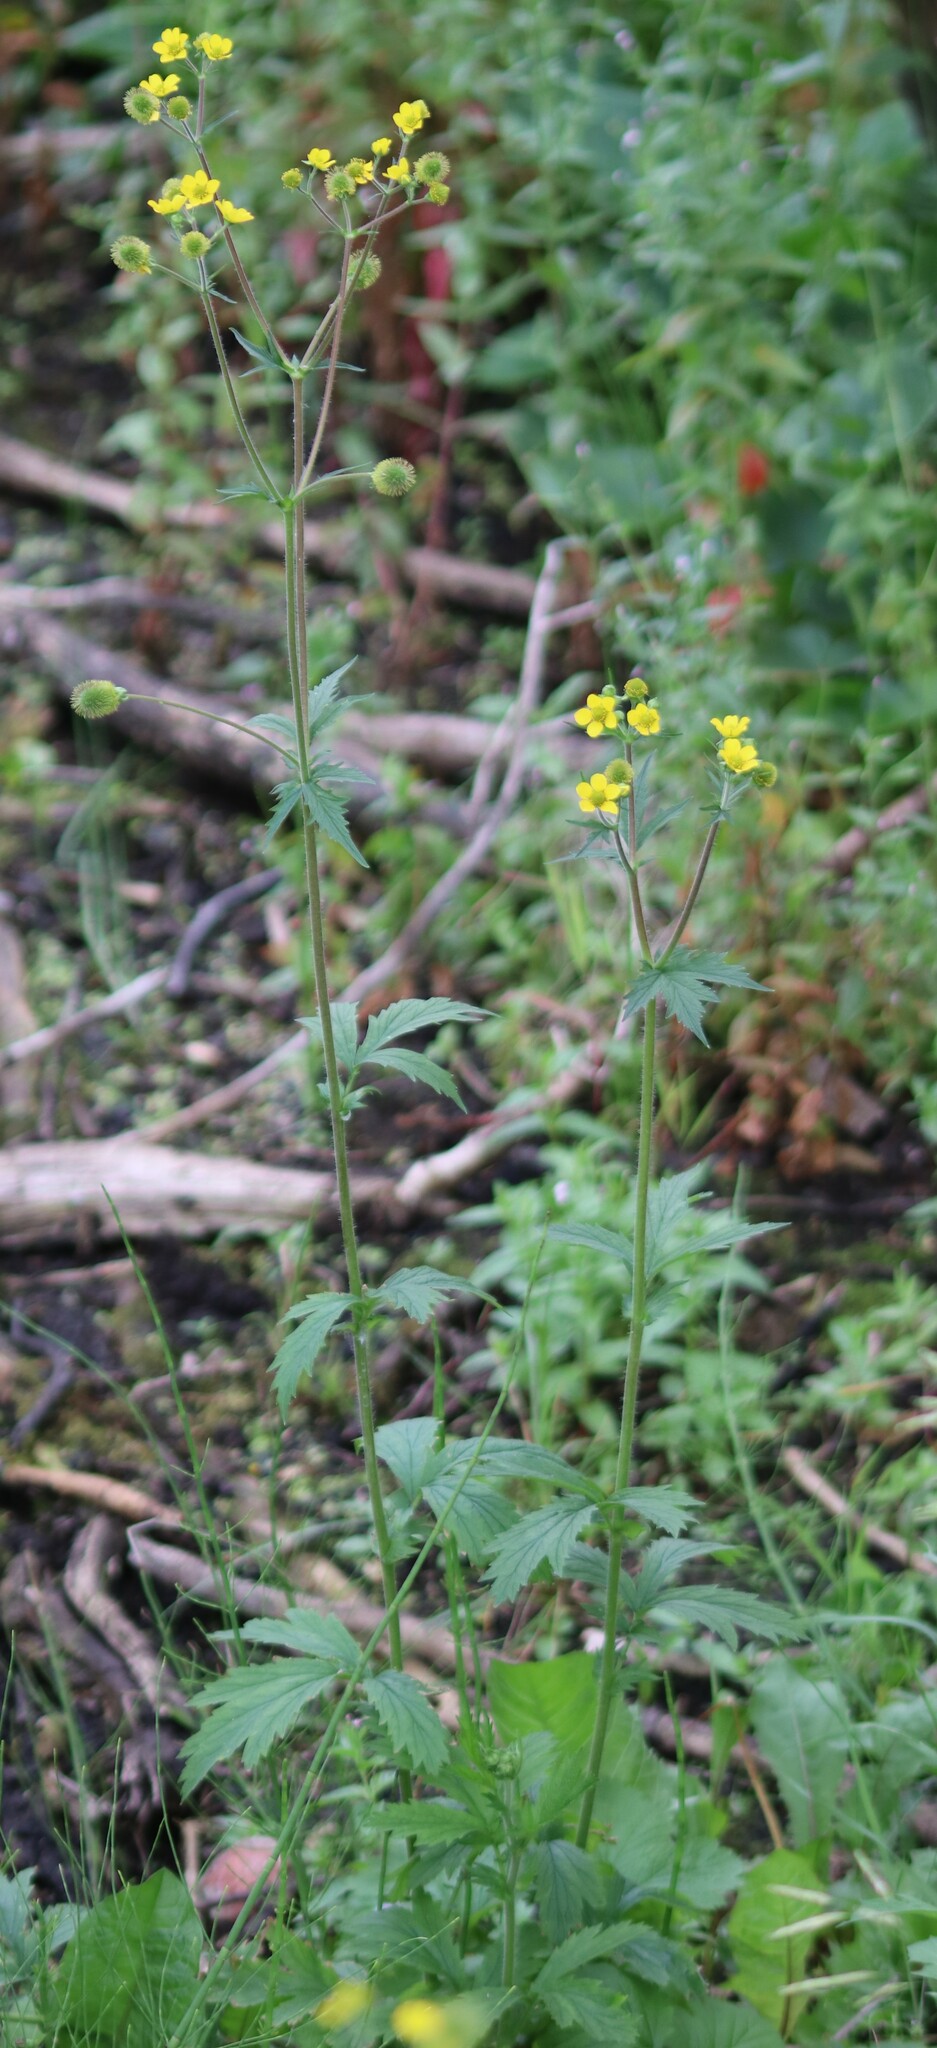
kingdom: Plantae
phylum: Tracheophyta
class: Magnoliopsida
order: Rosales
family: Rosaceae
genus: Geum
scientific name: Geum aleppicum
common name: Yellow avens
